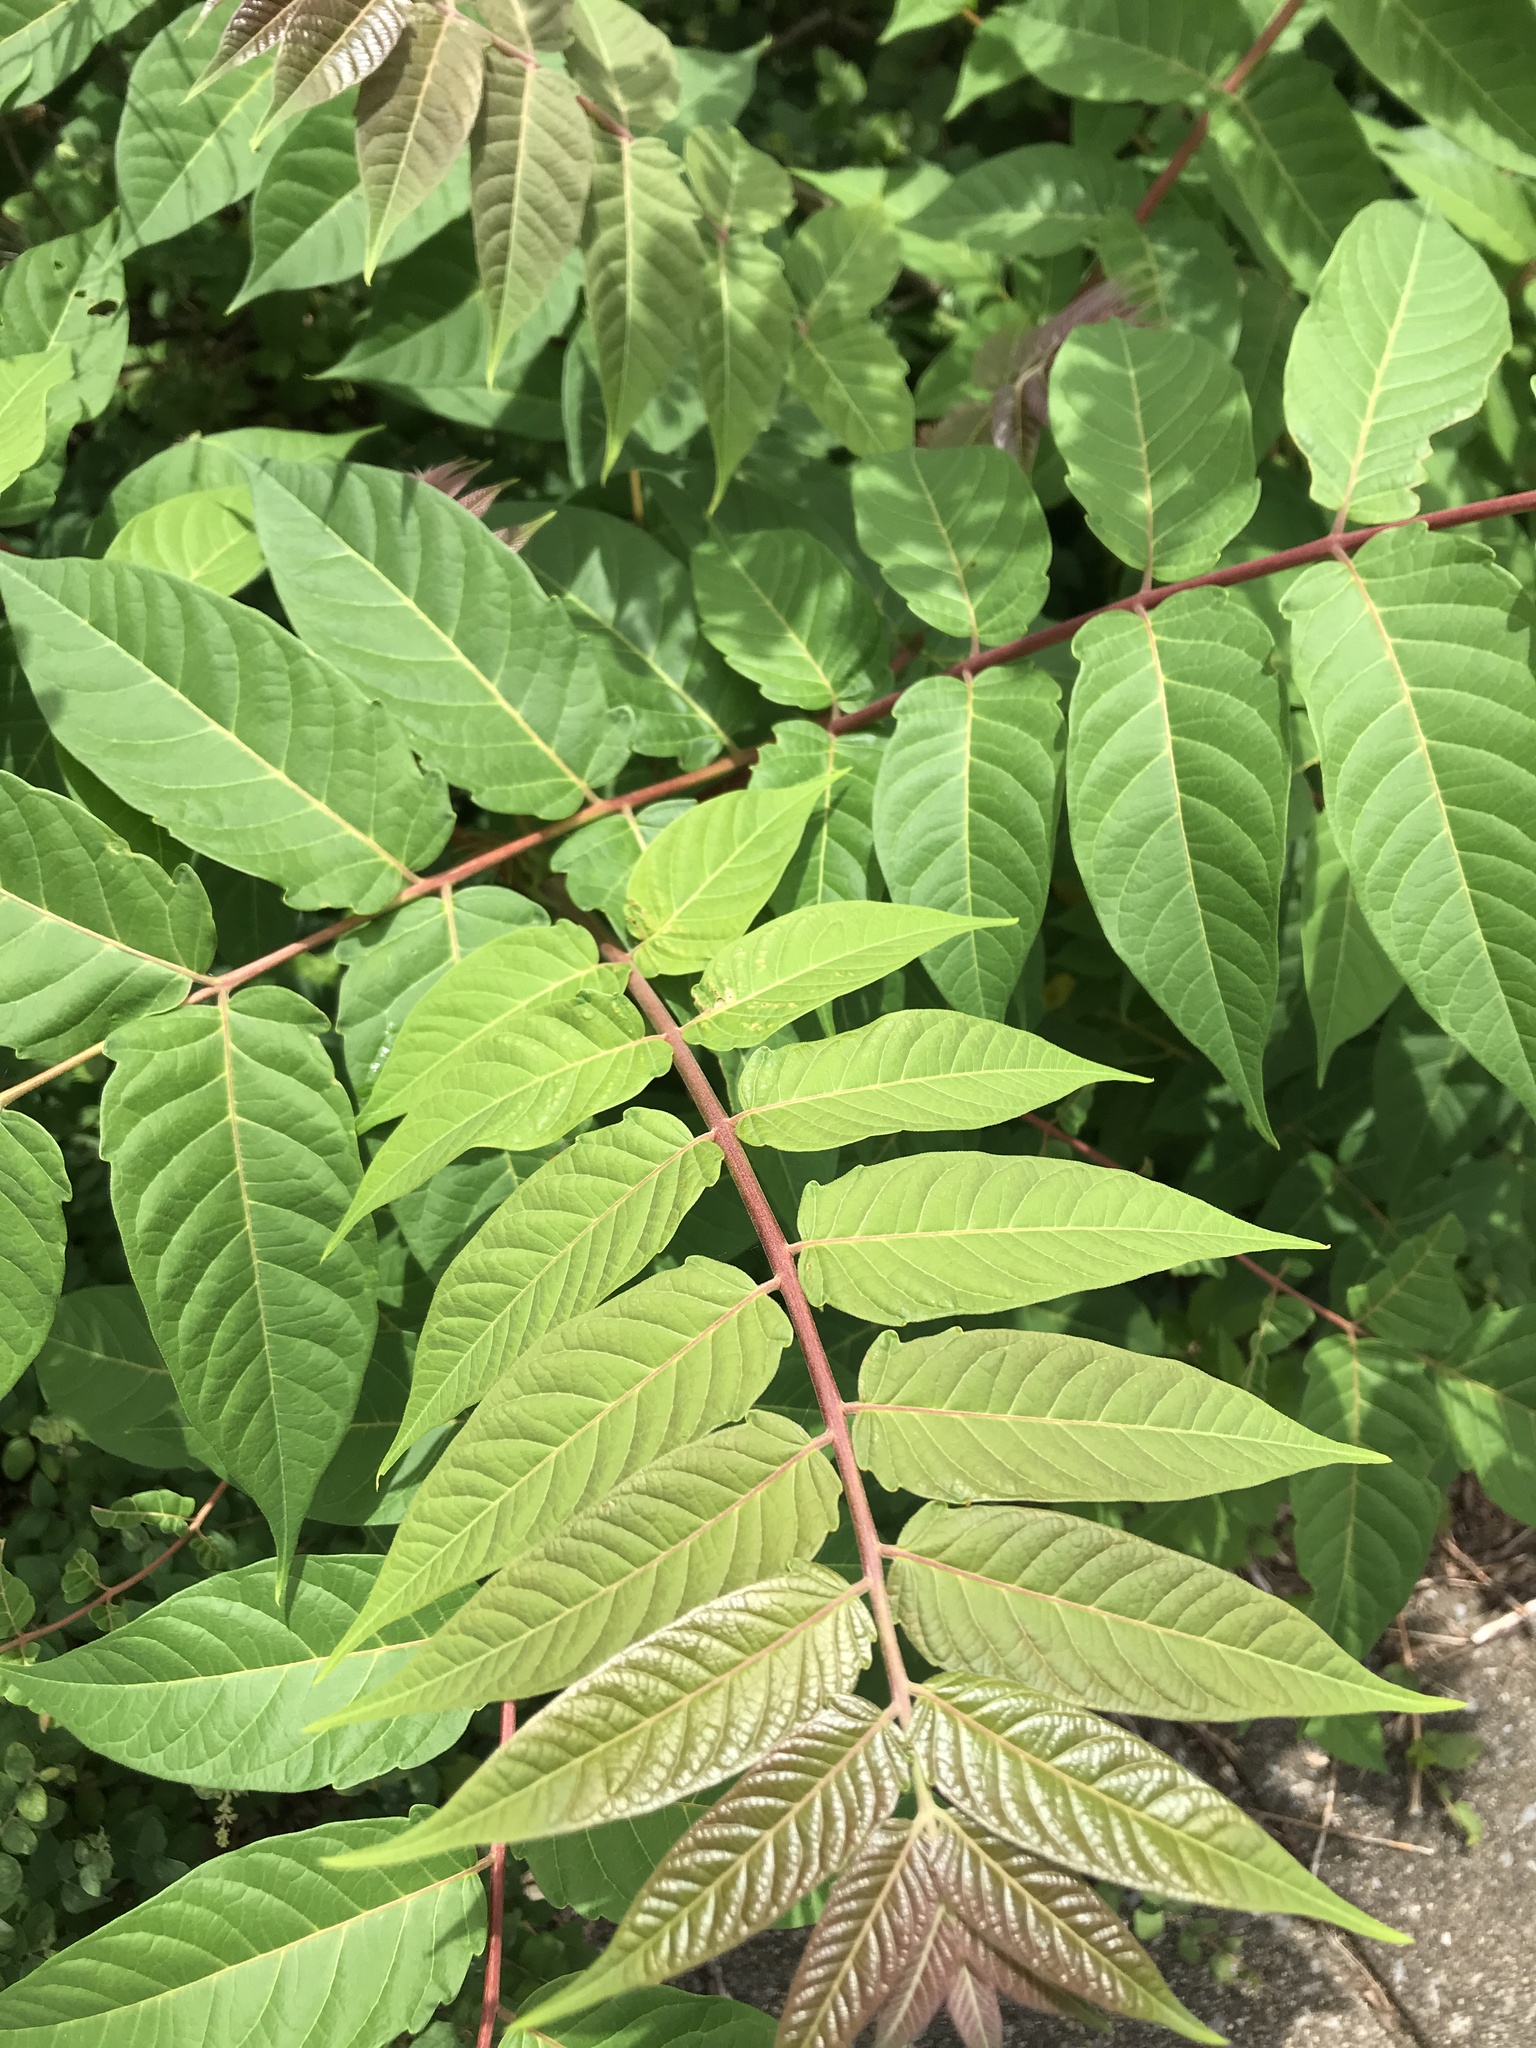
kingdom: Plantae
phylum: Tracheophyta
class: Magnoliopsida
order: Sapindales
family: Simaroubaceae
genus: Ailanthus
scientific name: Ailanthus altissima
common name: Tree-of-heaven
